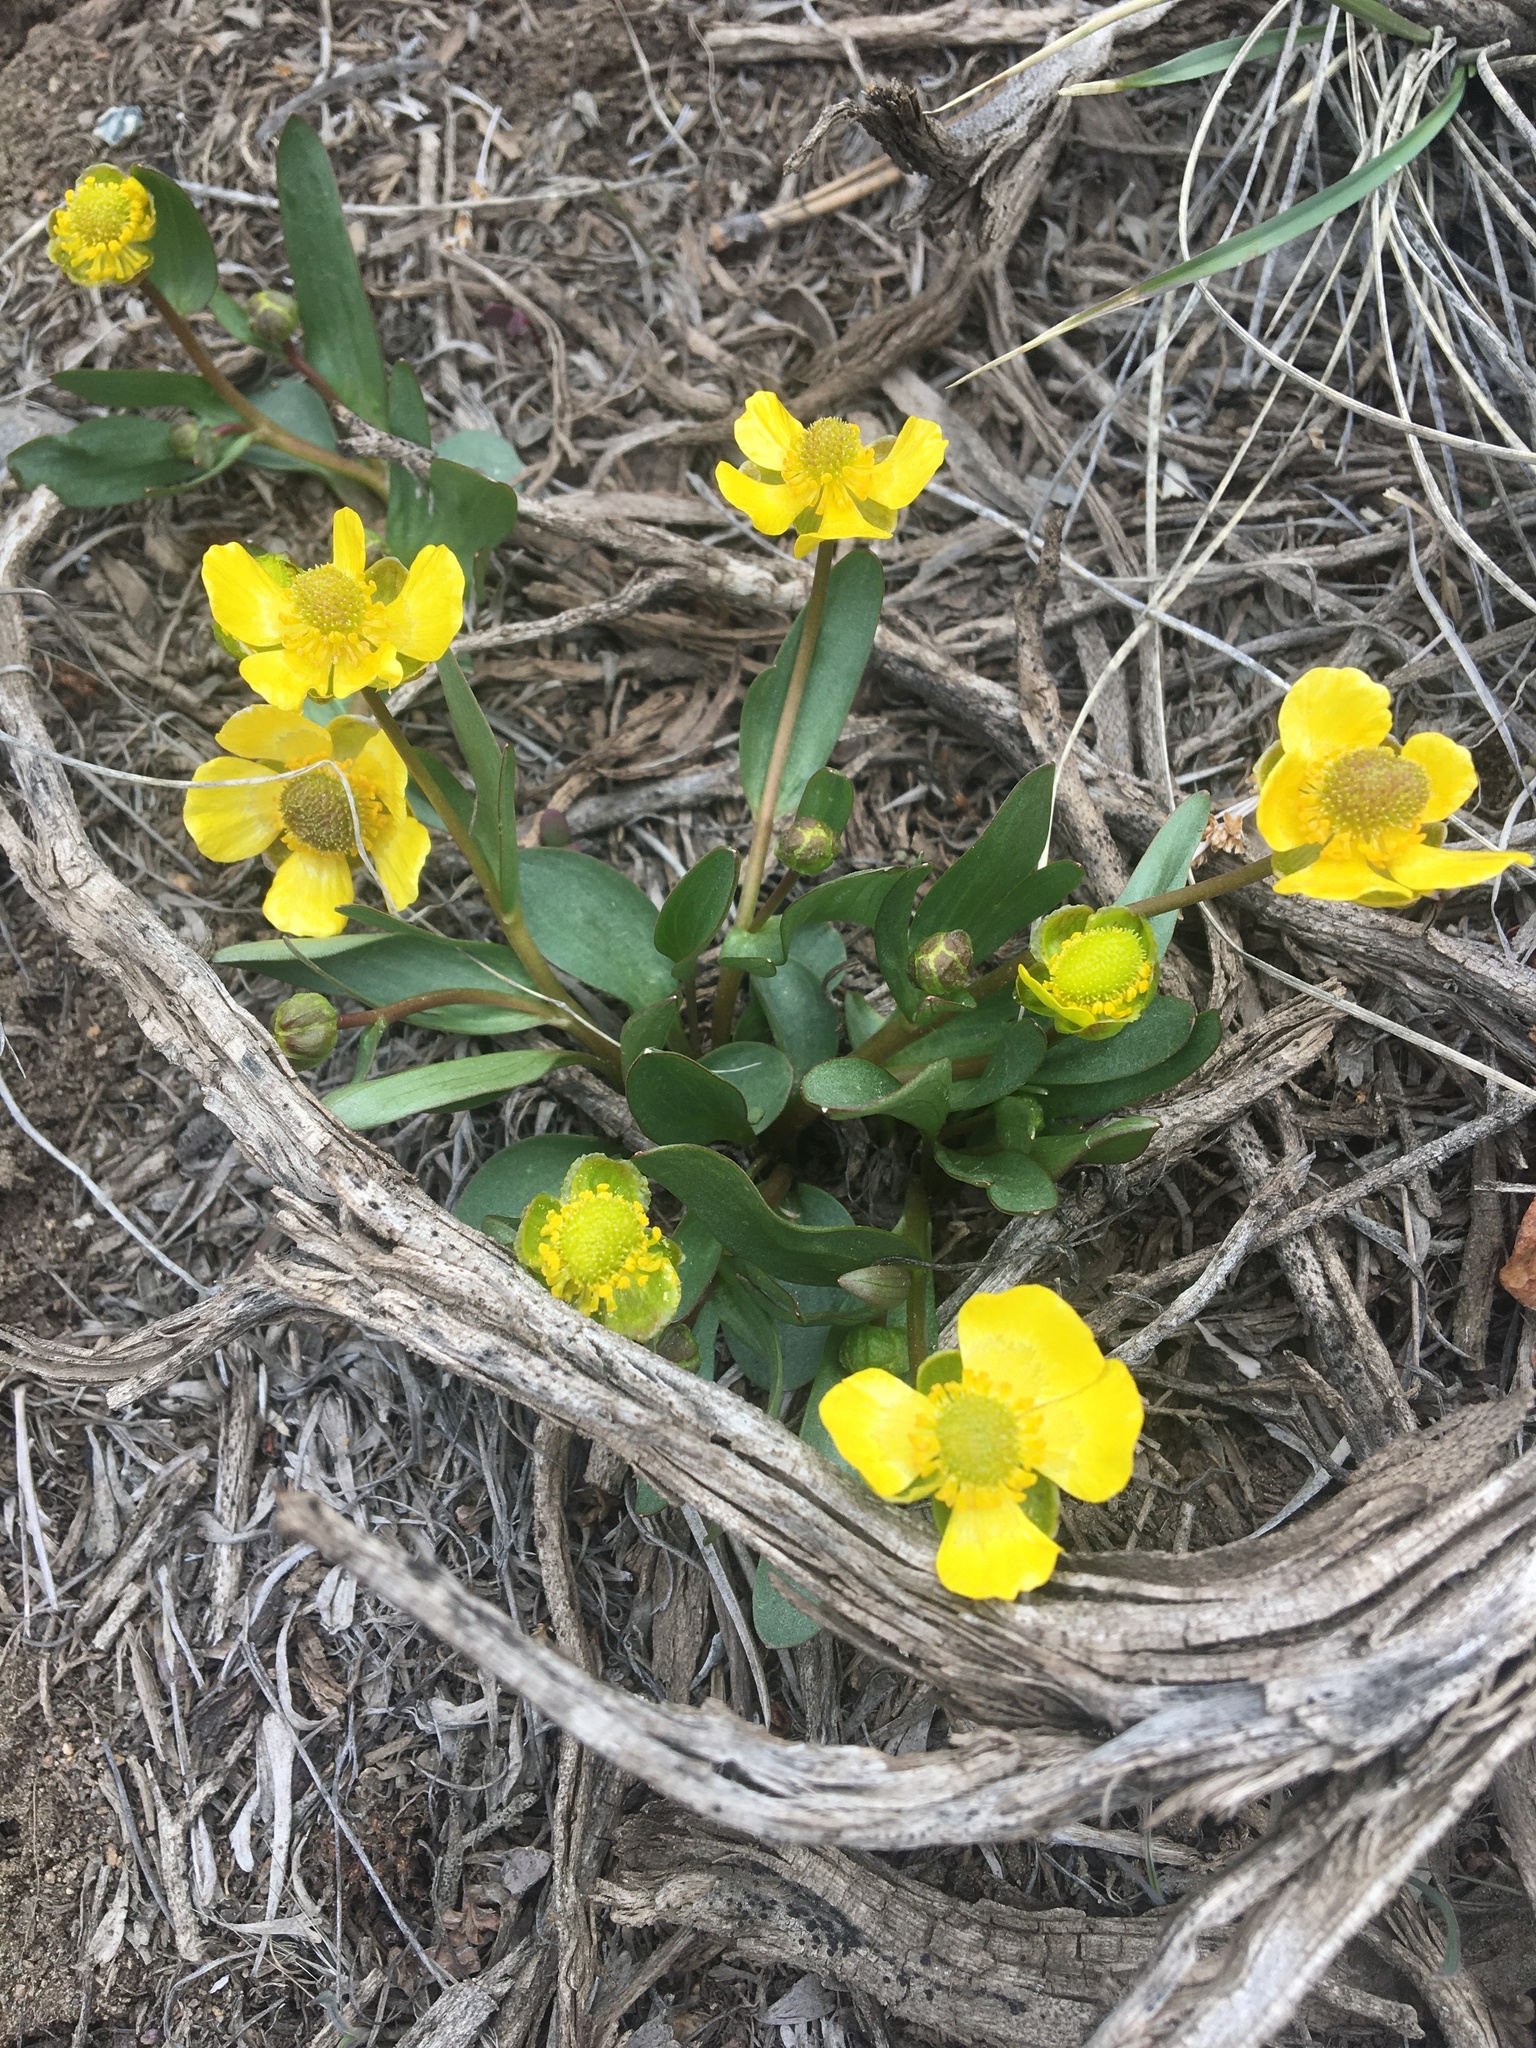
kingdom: Plantae
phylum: Tracheophyta
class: Magnoliopsida
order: Ranunculales
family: Ranunculaceae
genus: Ranunculus
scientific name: Ranunculus glaberrimus
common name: Sagebrush buttercup
